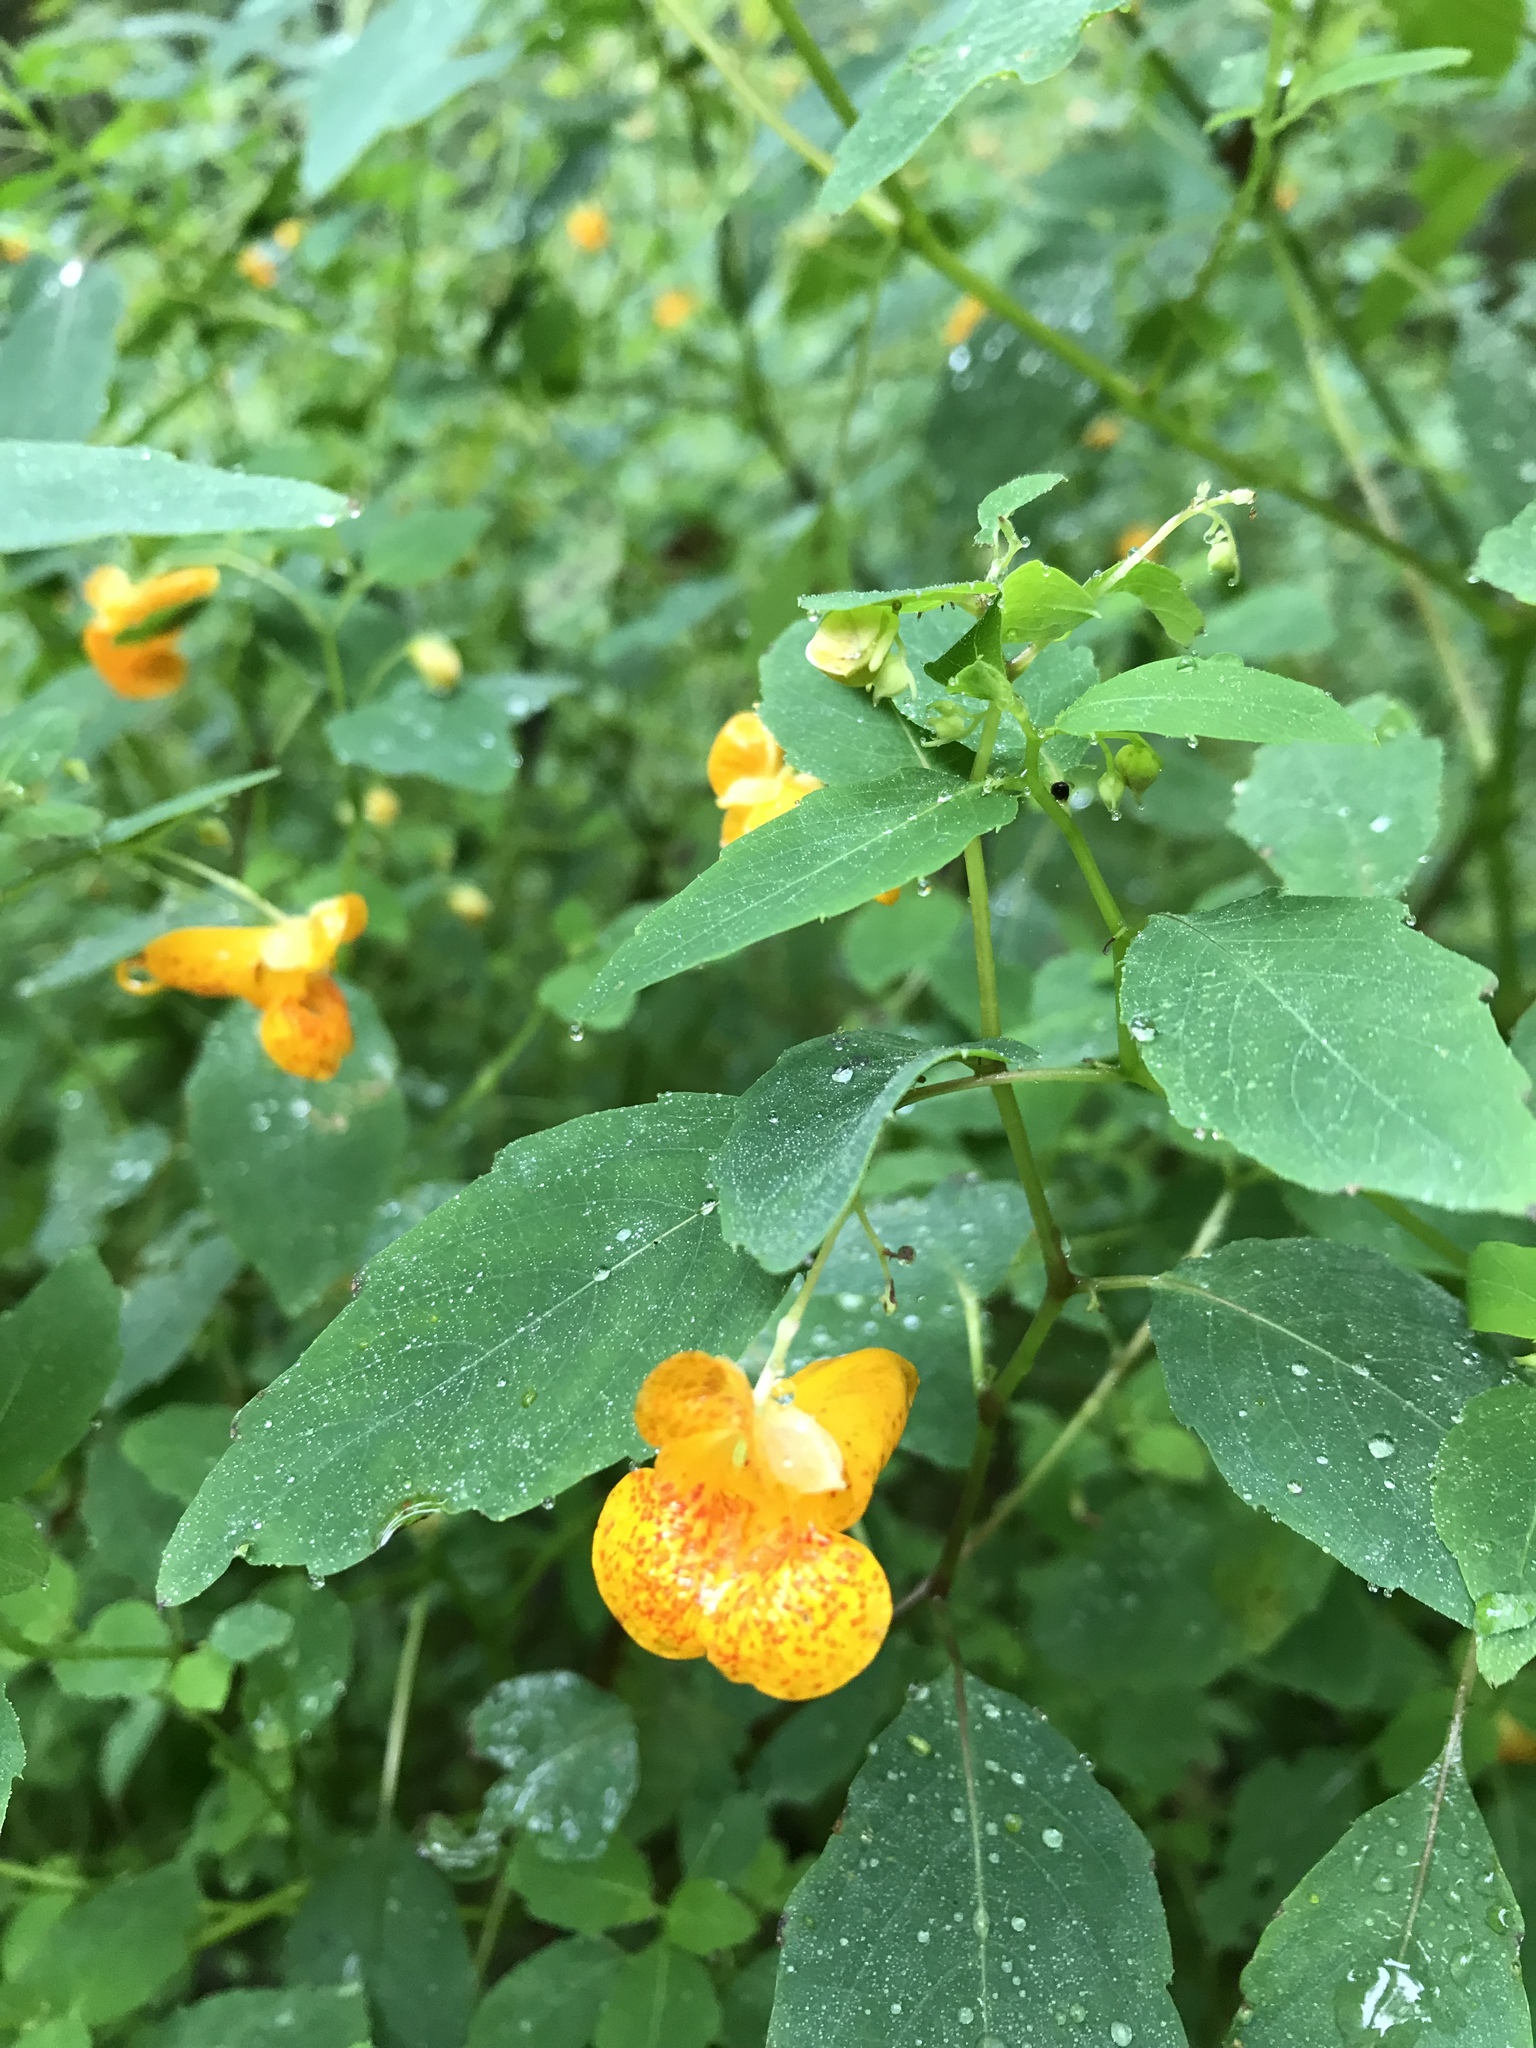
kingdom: Plantae
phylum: Tracheophyta
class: Magnoliopsida
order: Ericales
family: Balsaminaceae
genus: Impatiens
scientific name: Impatiens capensis
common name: Orange balsam
